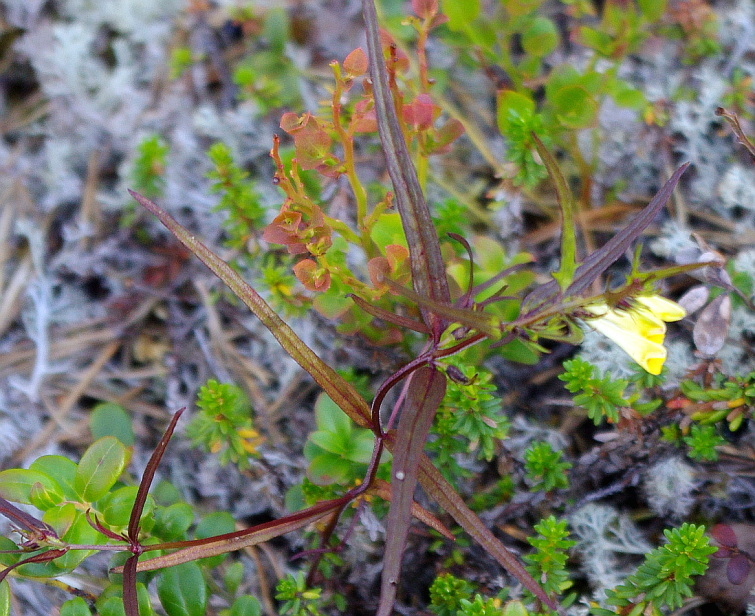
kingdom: Plantae
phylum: Tracheophyta
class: Magnoliopsida
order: Lamiales
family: Orobanchaceae
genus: Melampyrum
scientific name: Melampyrum pratense
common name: Common cow-wheat
